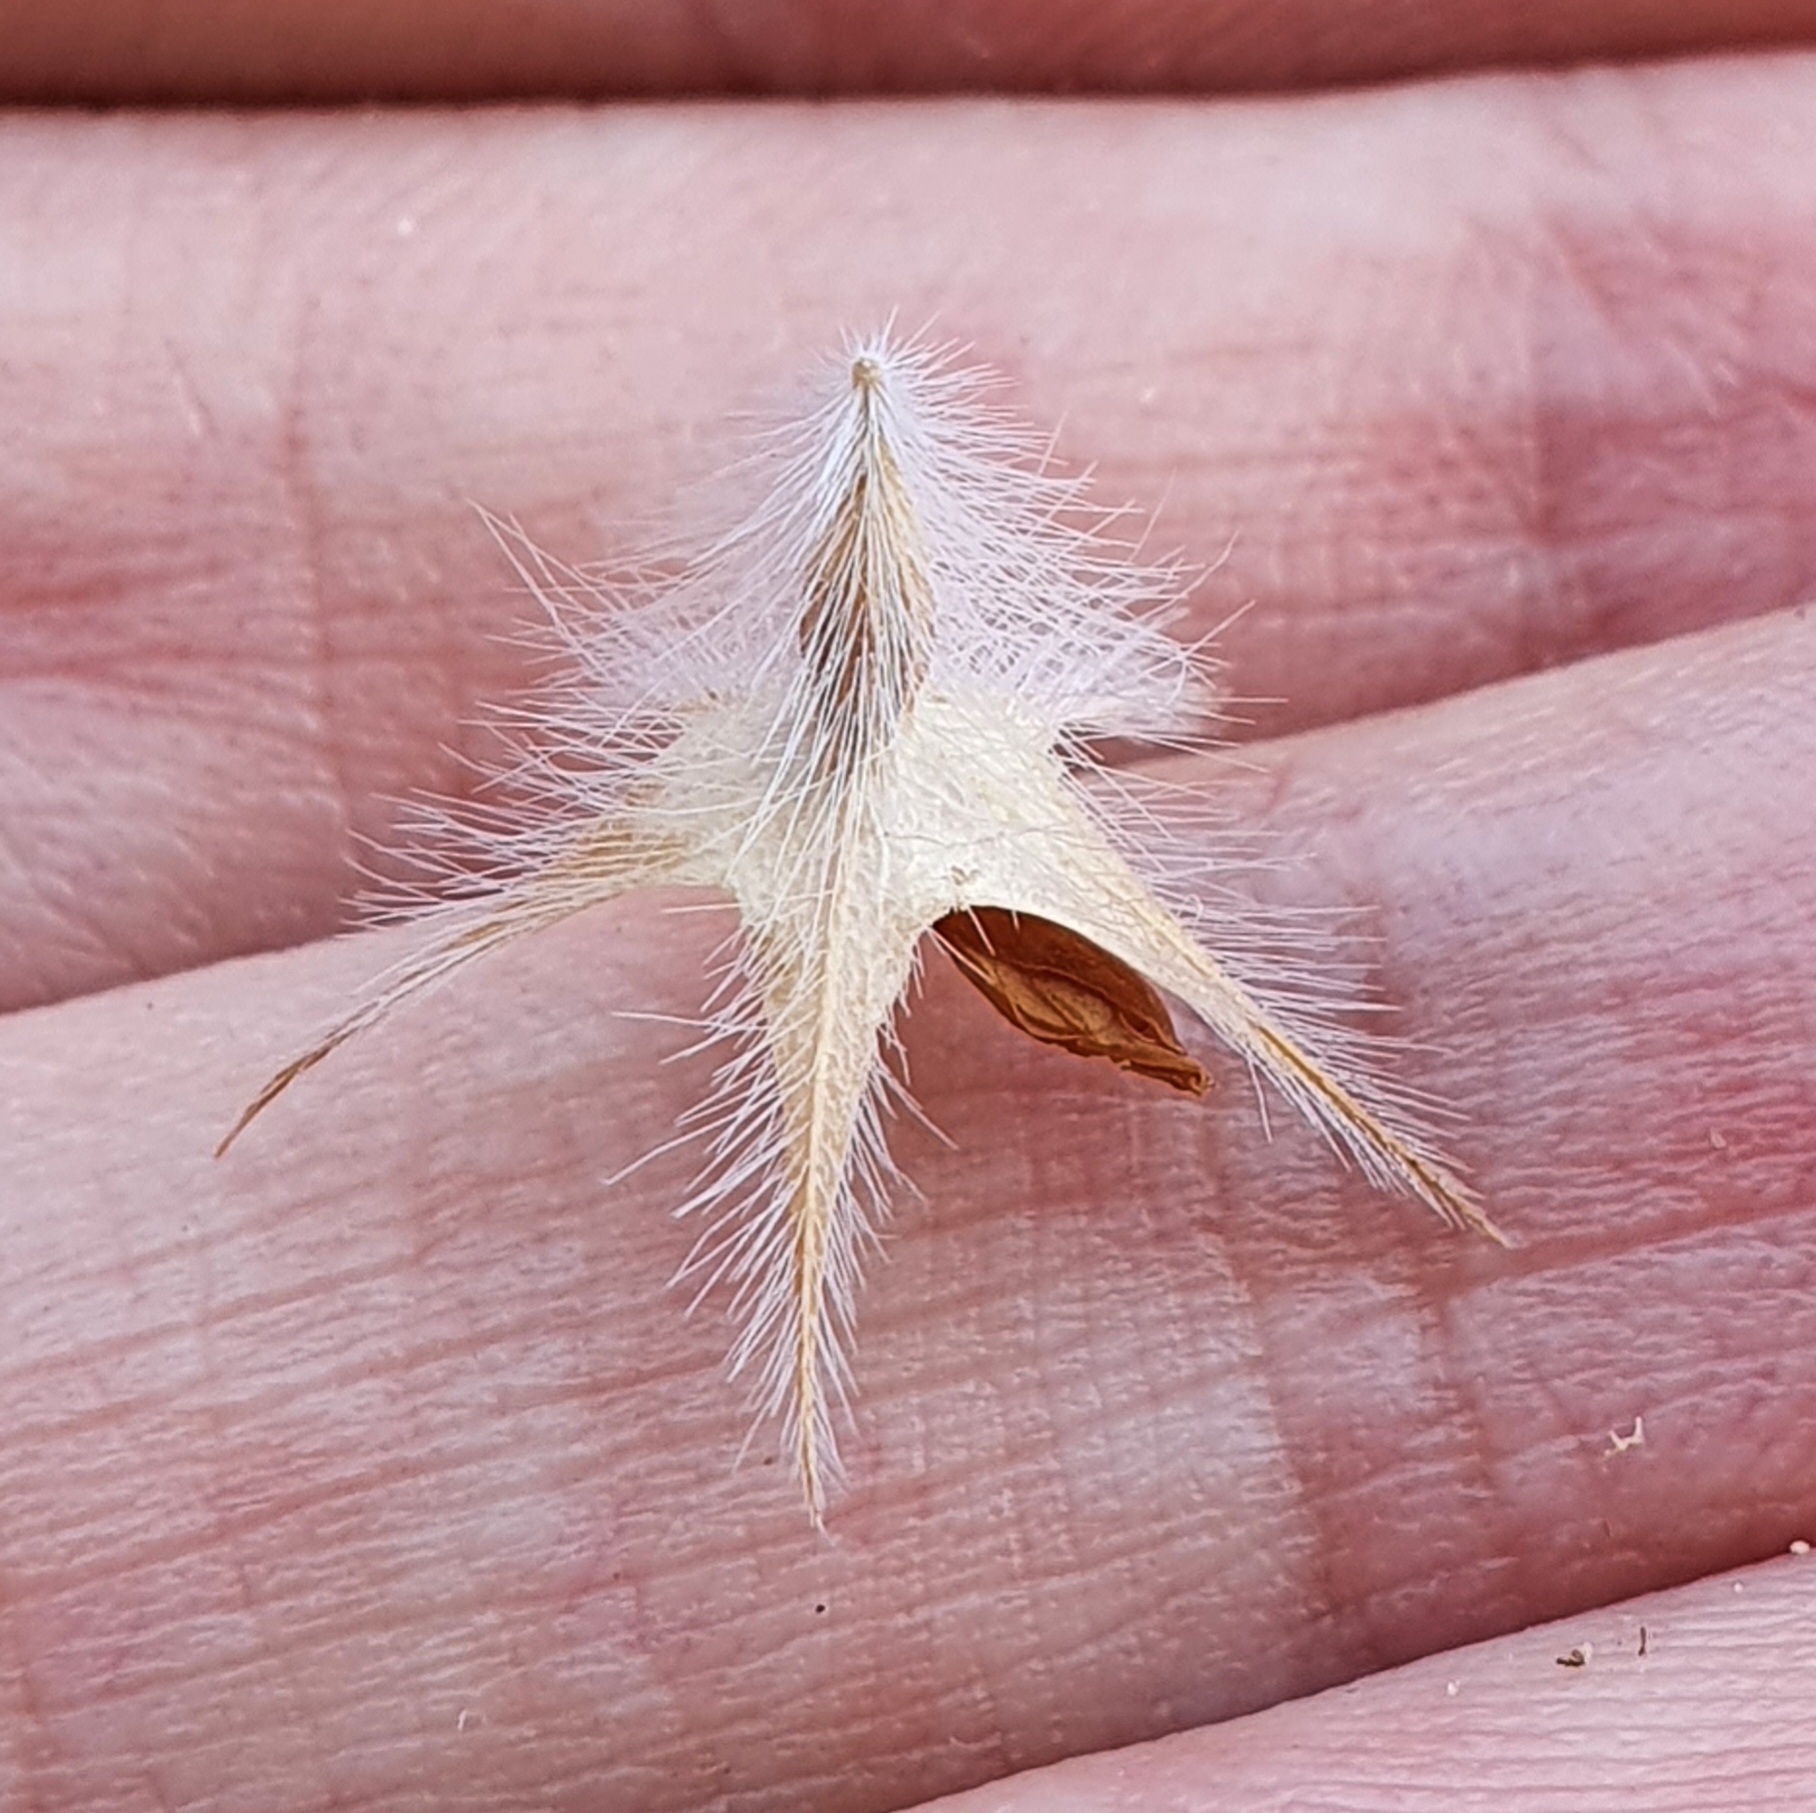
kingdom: Plantae
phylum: Tracheophyta
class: Magnoliopsida
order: Fabales
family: Fabaceae
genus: Trifolium
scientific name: Trifolium stellatum
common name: Starry clover
